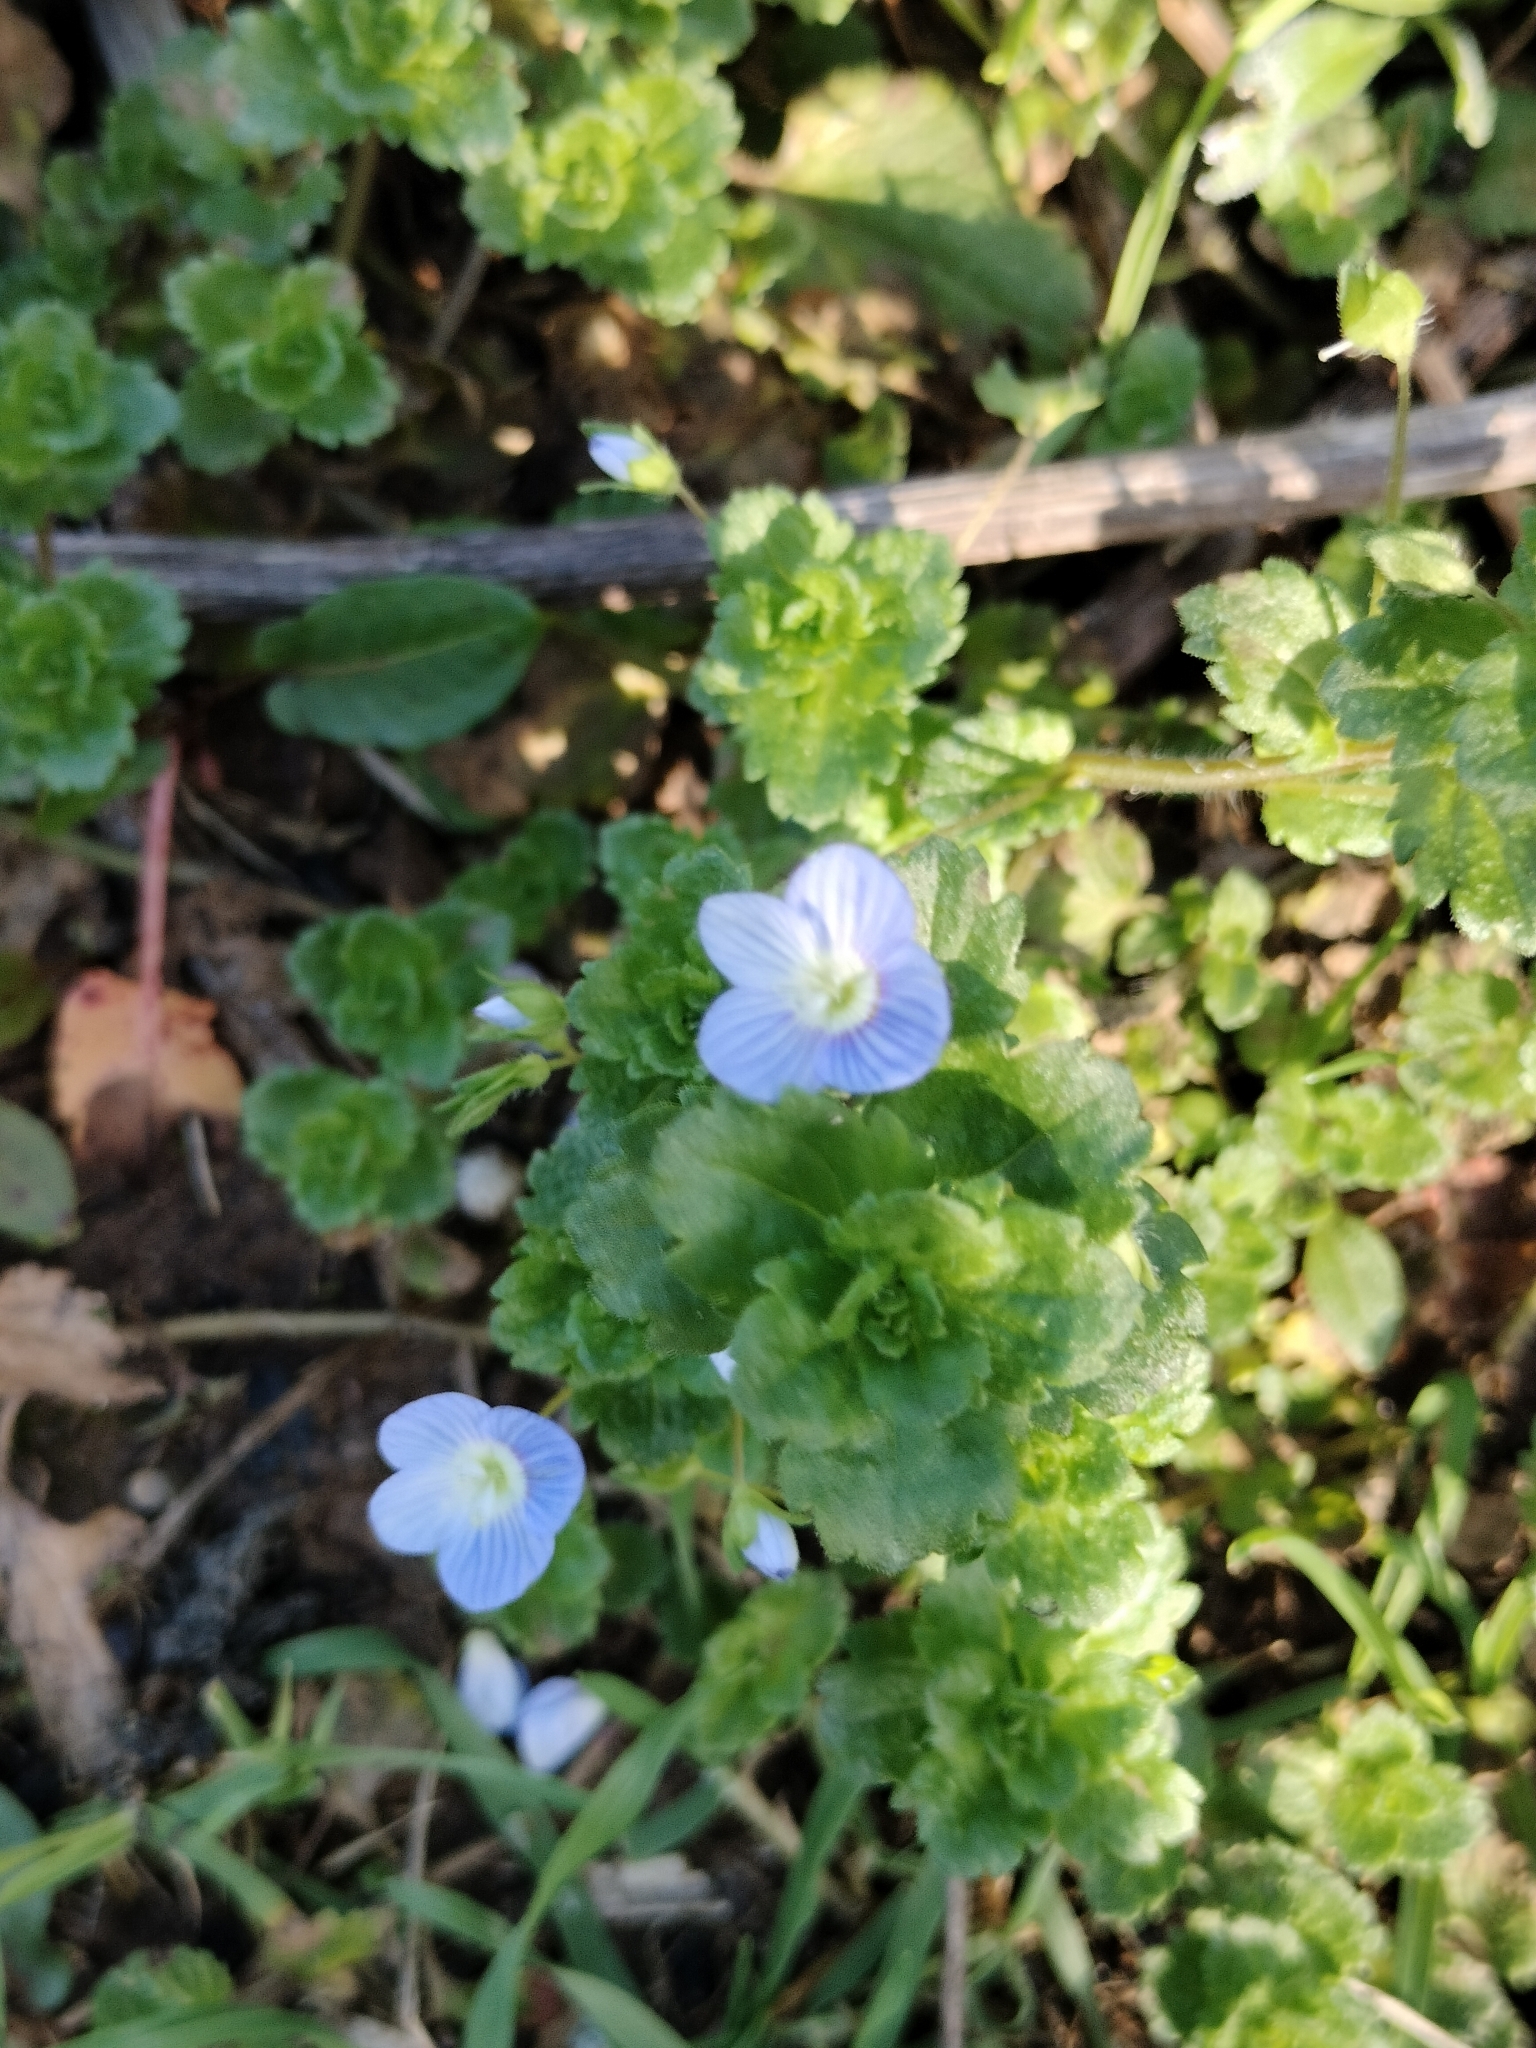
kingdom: Plantae
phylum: Tracheophyta
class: Magnoliopsida
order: Lamiales
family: Plantaginaceae
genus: Veronica
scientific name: Veronica persica
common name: Common field-speedwell
